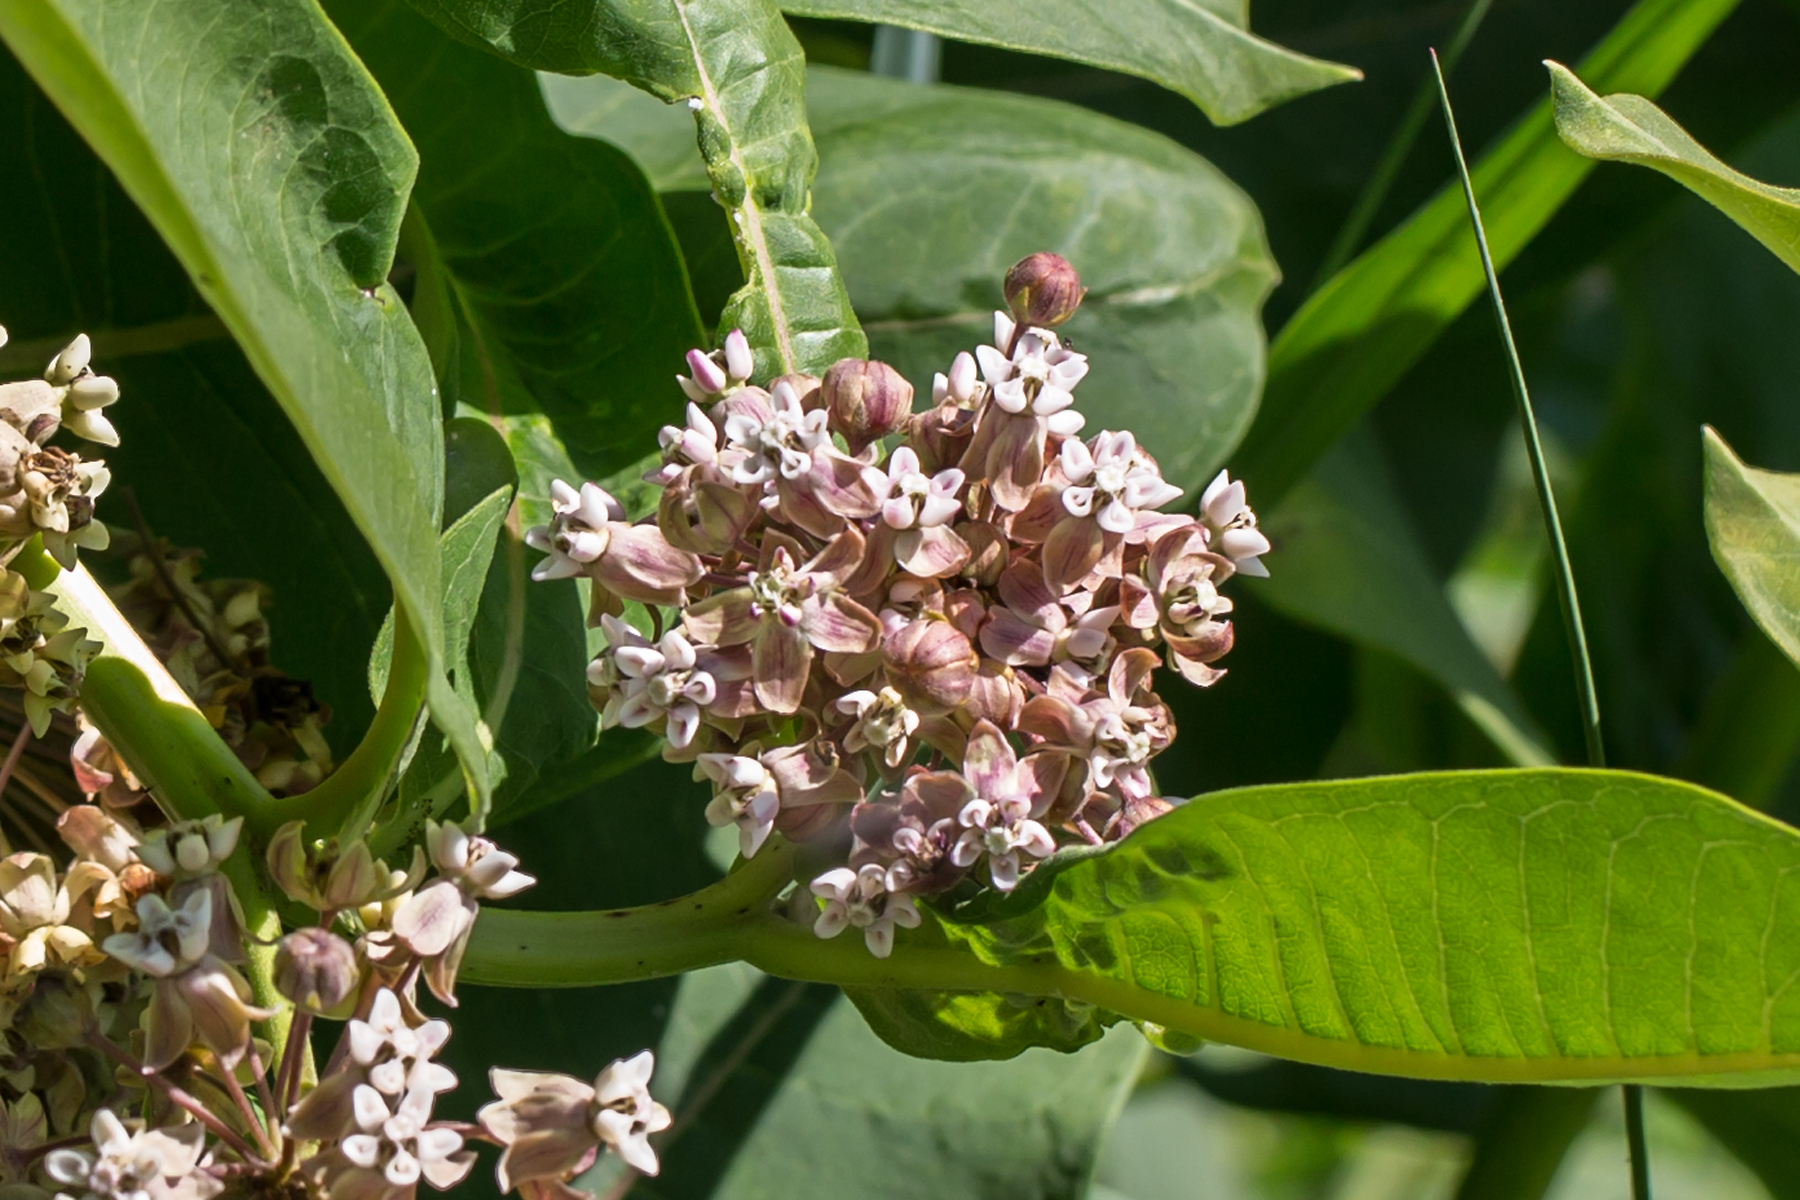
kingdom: Plantae
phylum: Tracheophyta
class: Magnoliopsida
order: Gentianales
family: Apocynaceae
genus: Asclepias
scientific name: Asclepias syriaca
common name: Common milkweed
